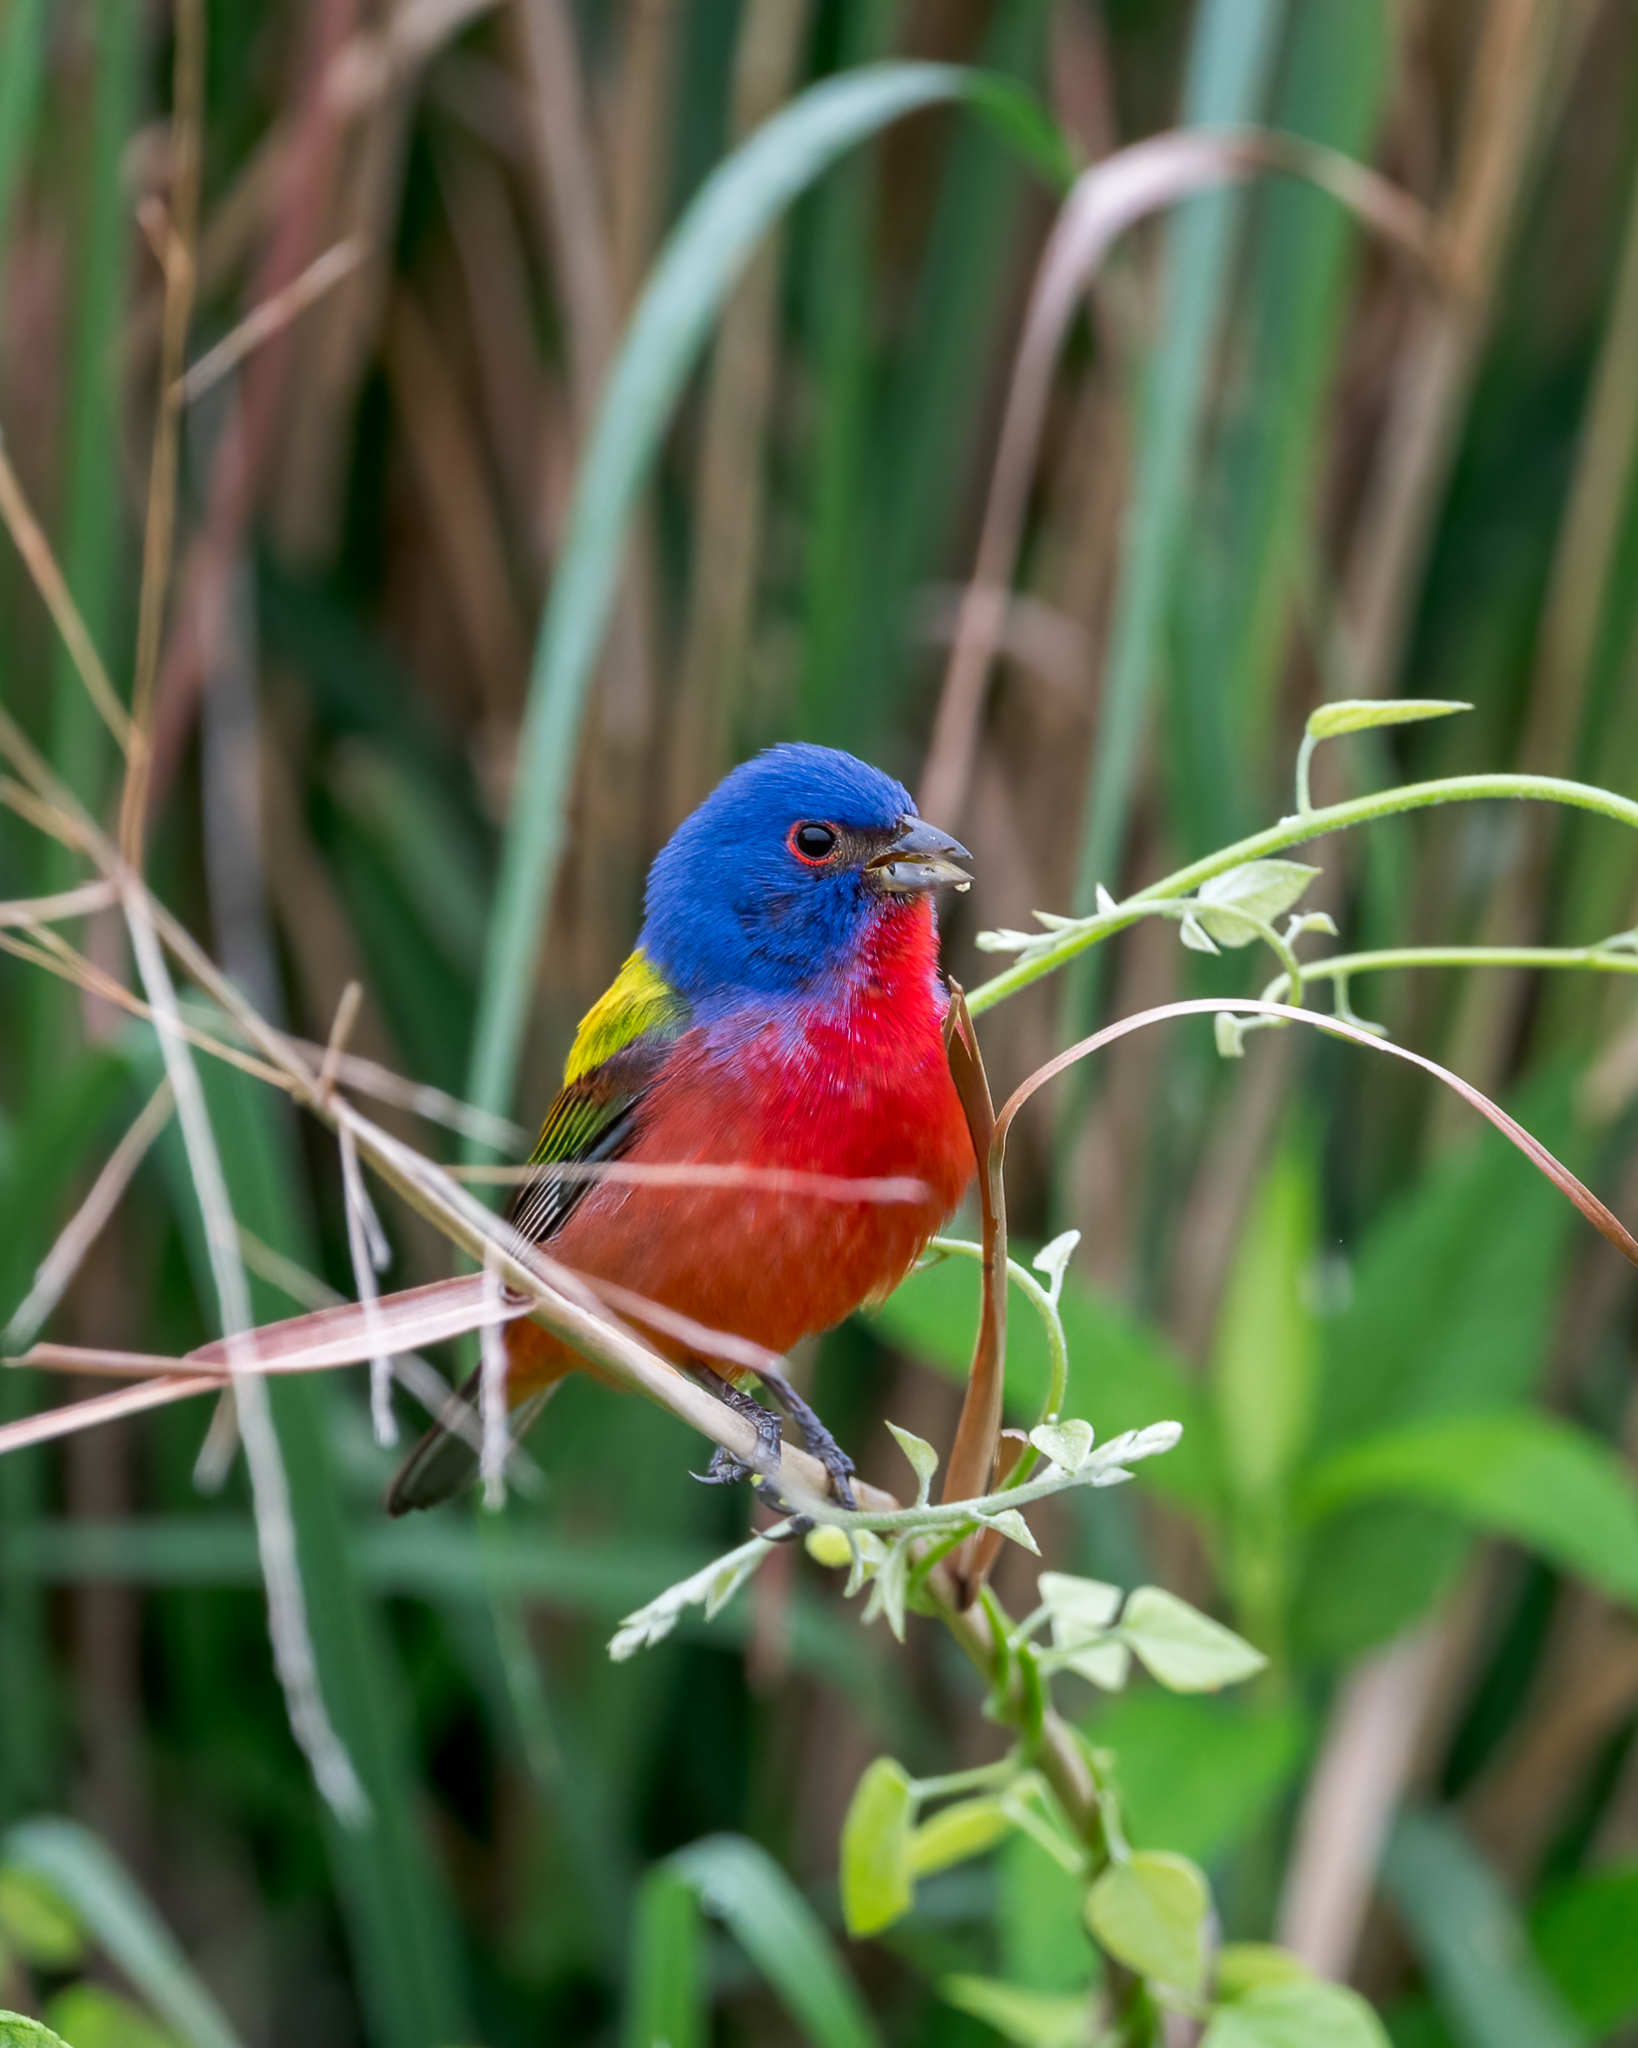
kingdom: Animalia
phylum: Chordata
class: Aves
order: Passeriformes
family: Cardinalidae
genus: Passerina
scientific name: Passerina ciris
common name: Painted bunting
